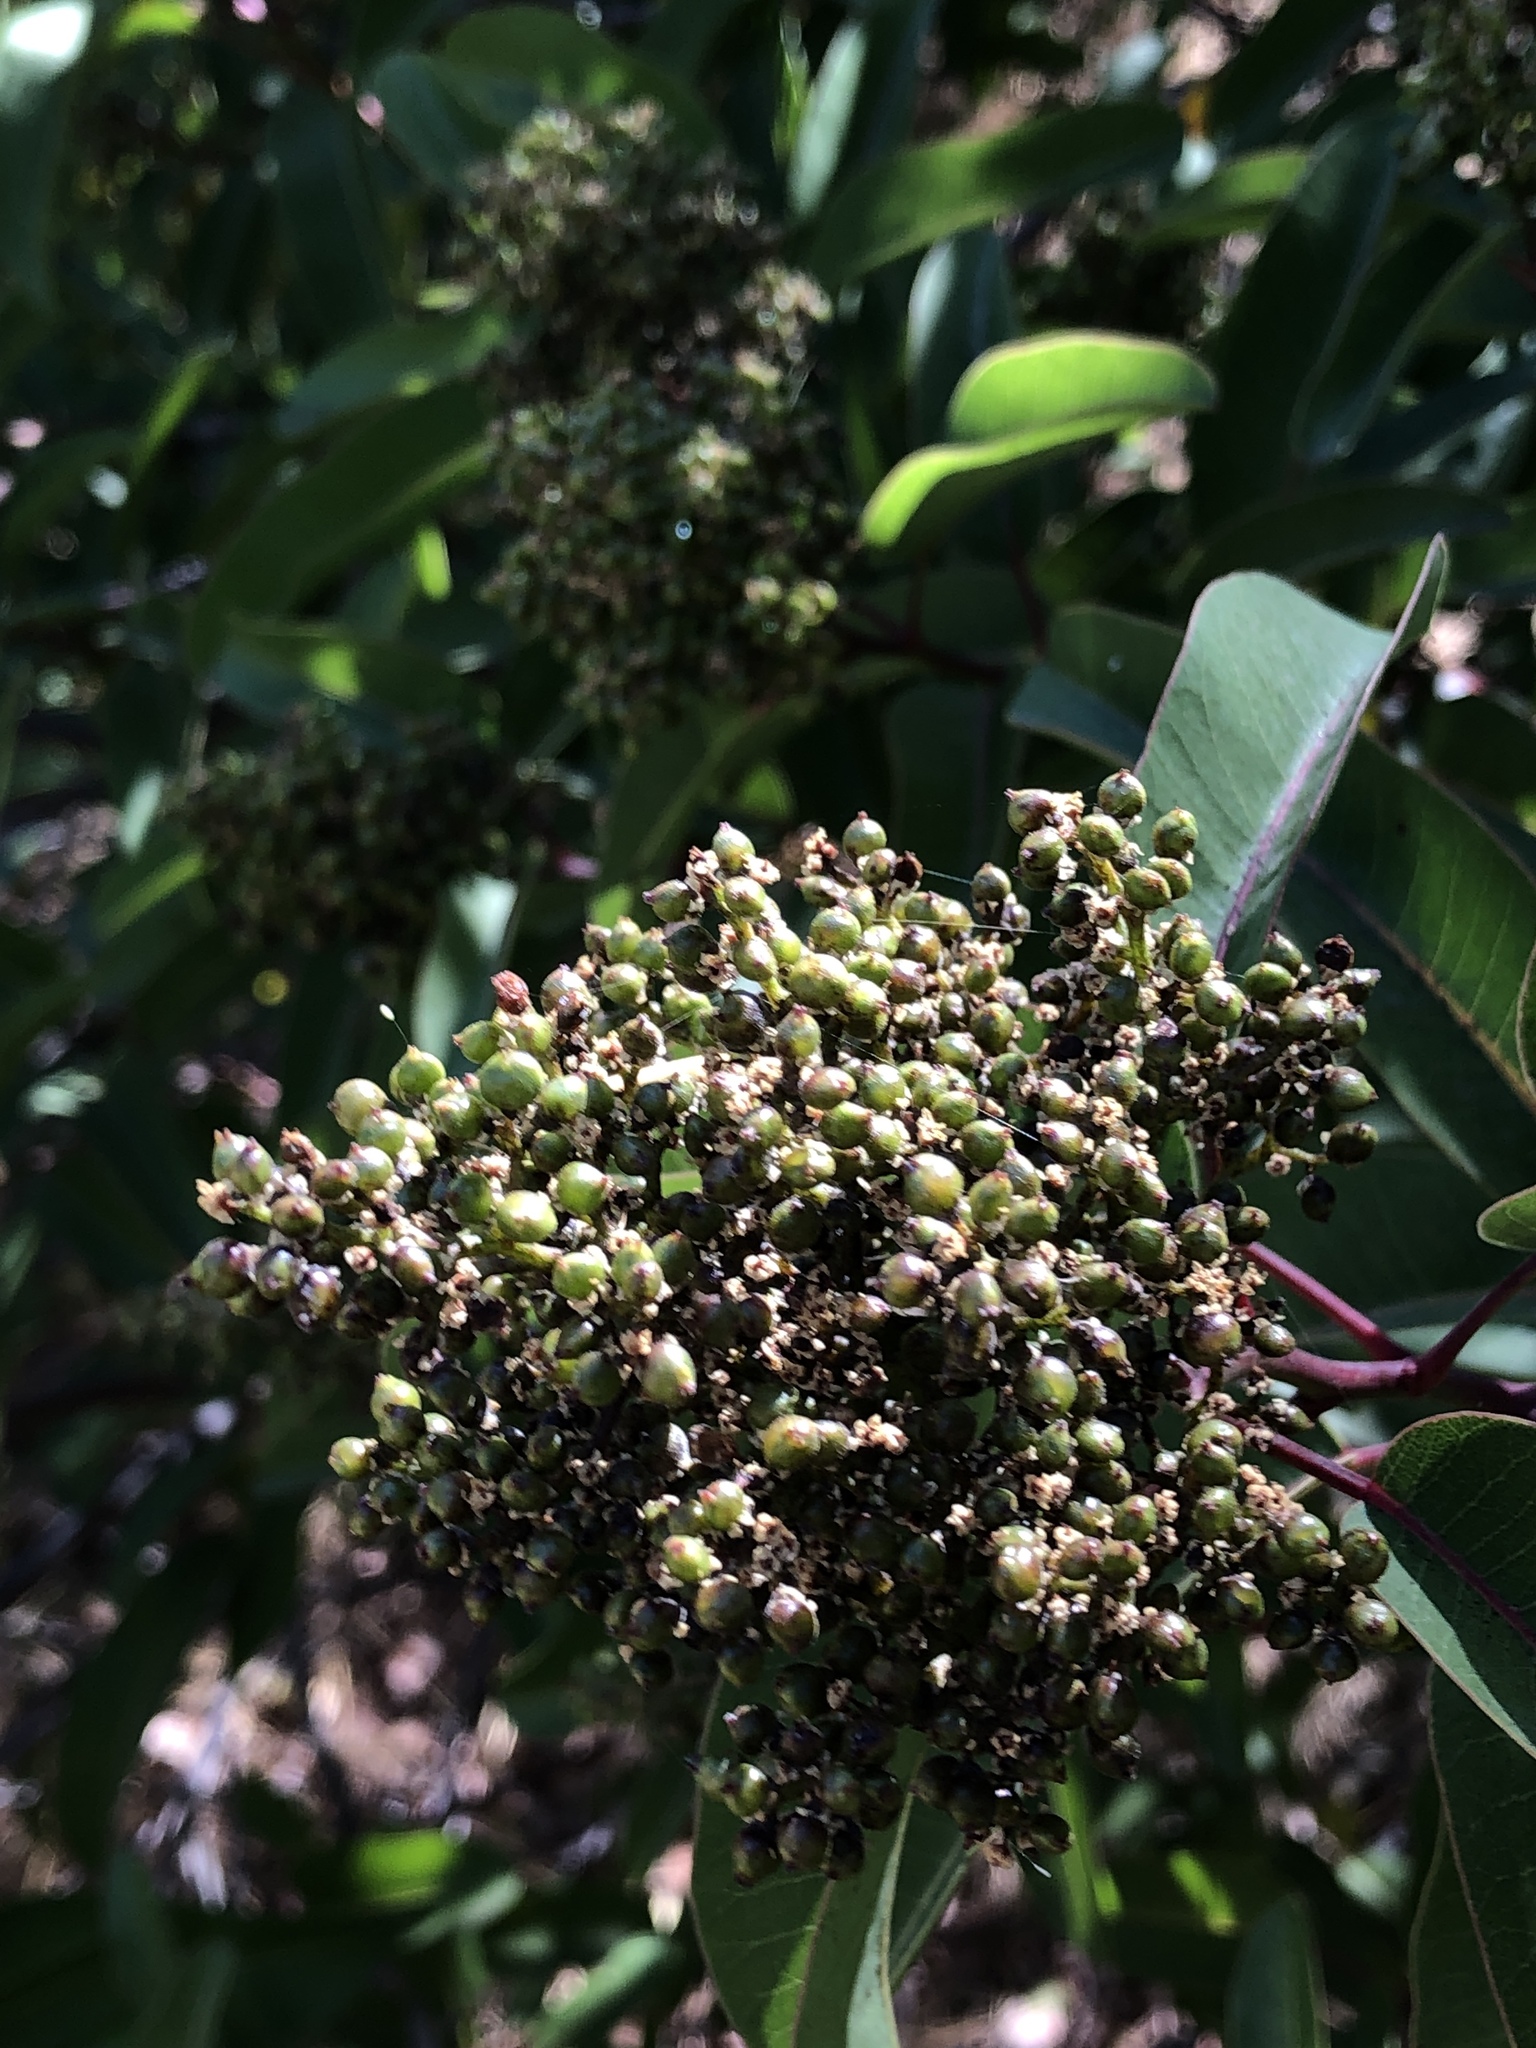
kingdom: Plantae
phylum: Tracheophyta
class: Magnoliopsida
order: Sapindales
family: Anacardiaceae
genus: Malosma
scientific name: Malosma laurina
